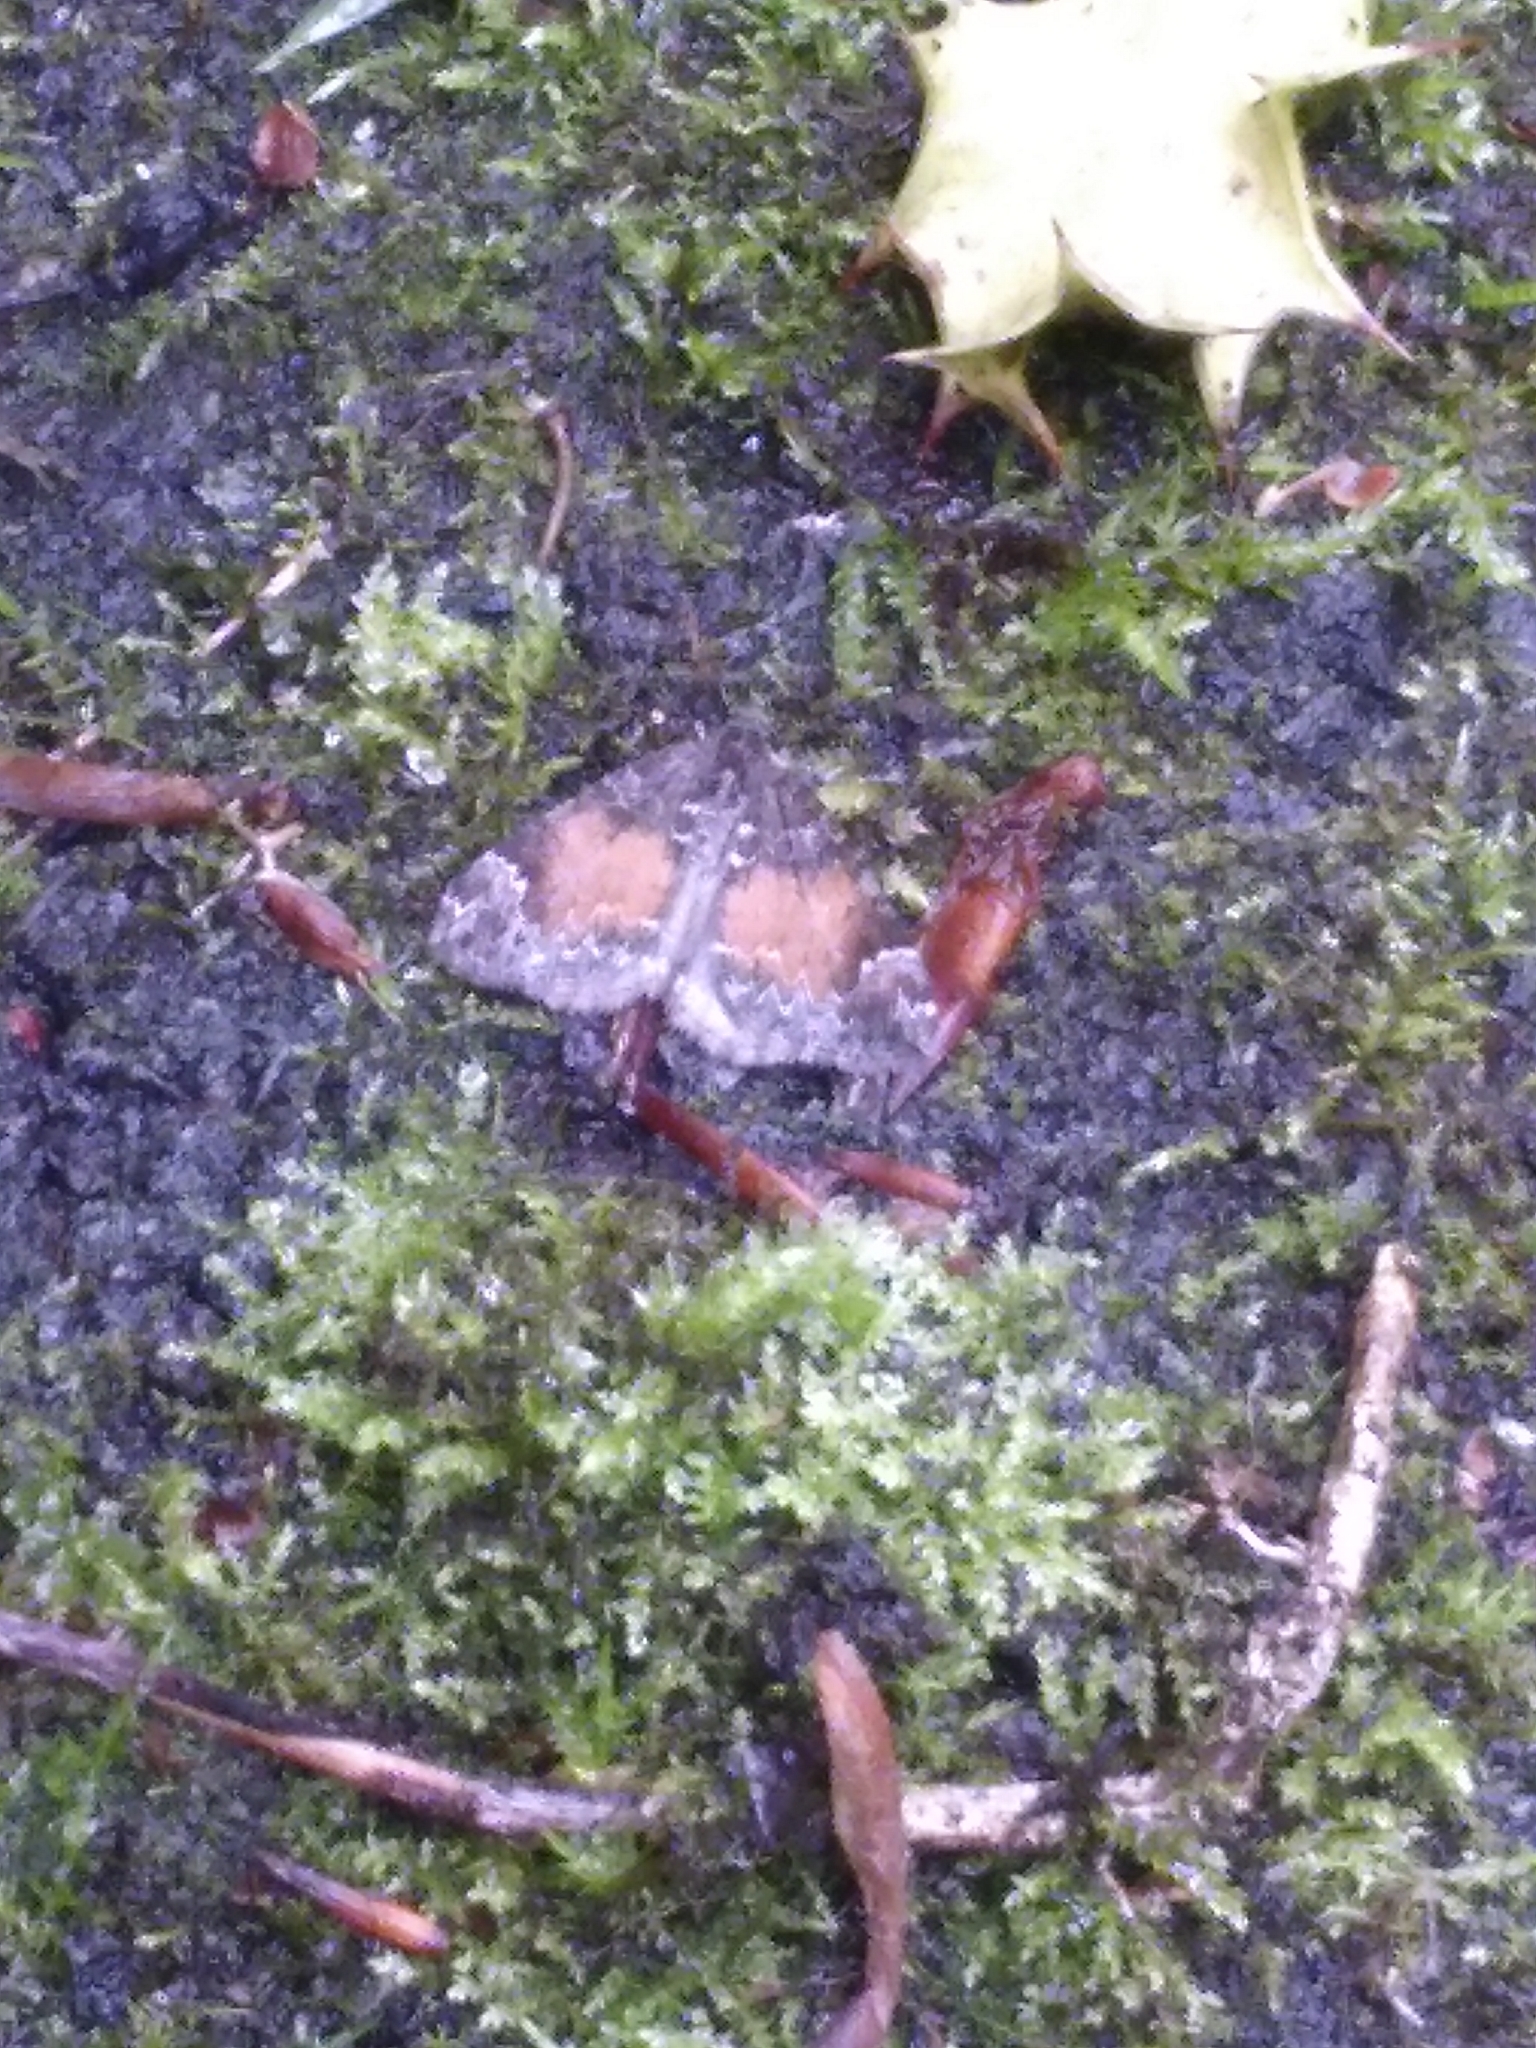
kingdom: Animalia
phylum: Arthropoda
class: Insecta
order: Lepidoptera
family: Geometridae
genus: Dysstroma
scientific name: Dysstroma truncata
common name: Common marbled carpet
